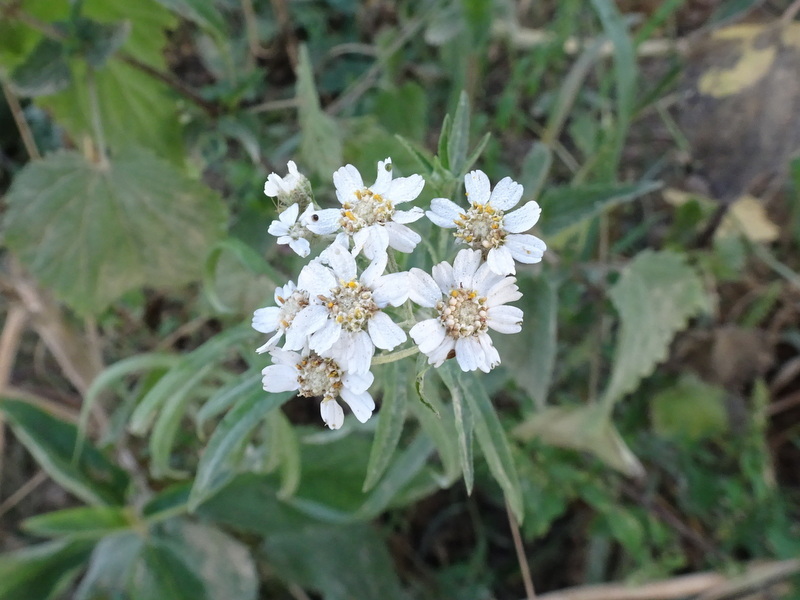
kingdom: Plantae
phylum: Tracheophyta
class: Magnoliopsida
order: Asterales
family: Asteraceae
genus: Achillea
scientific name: Achillea ptarmica
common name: Sneezeweed
